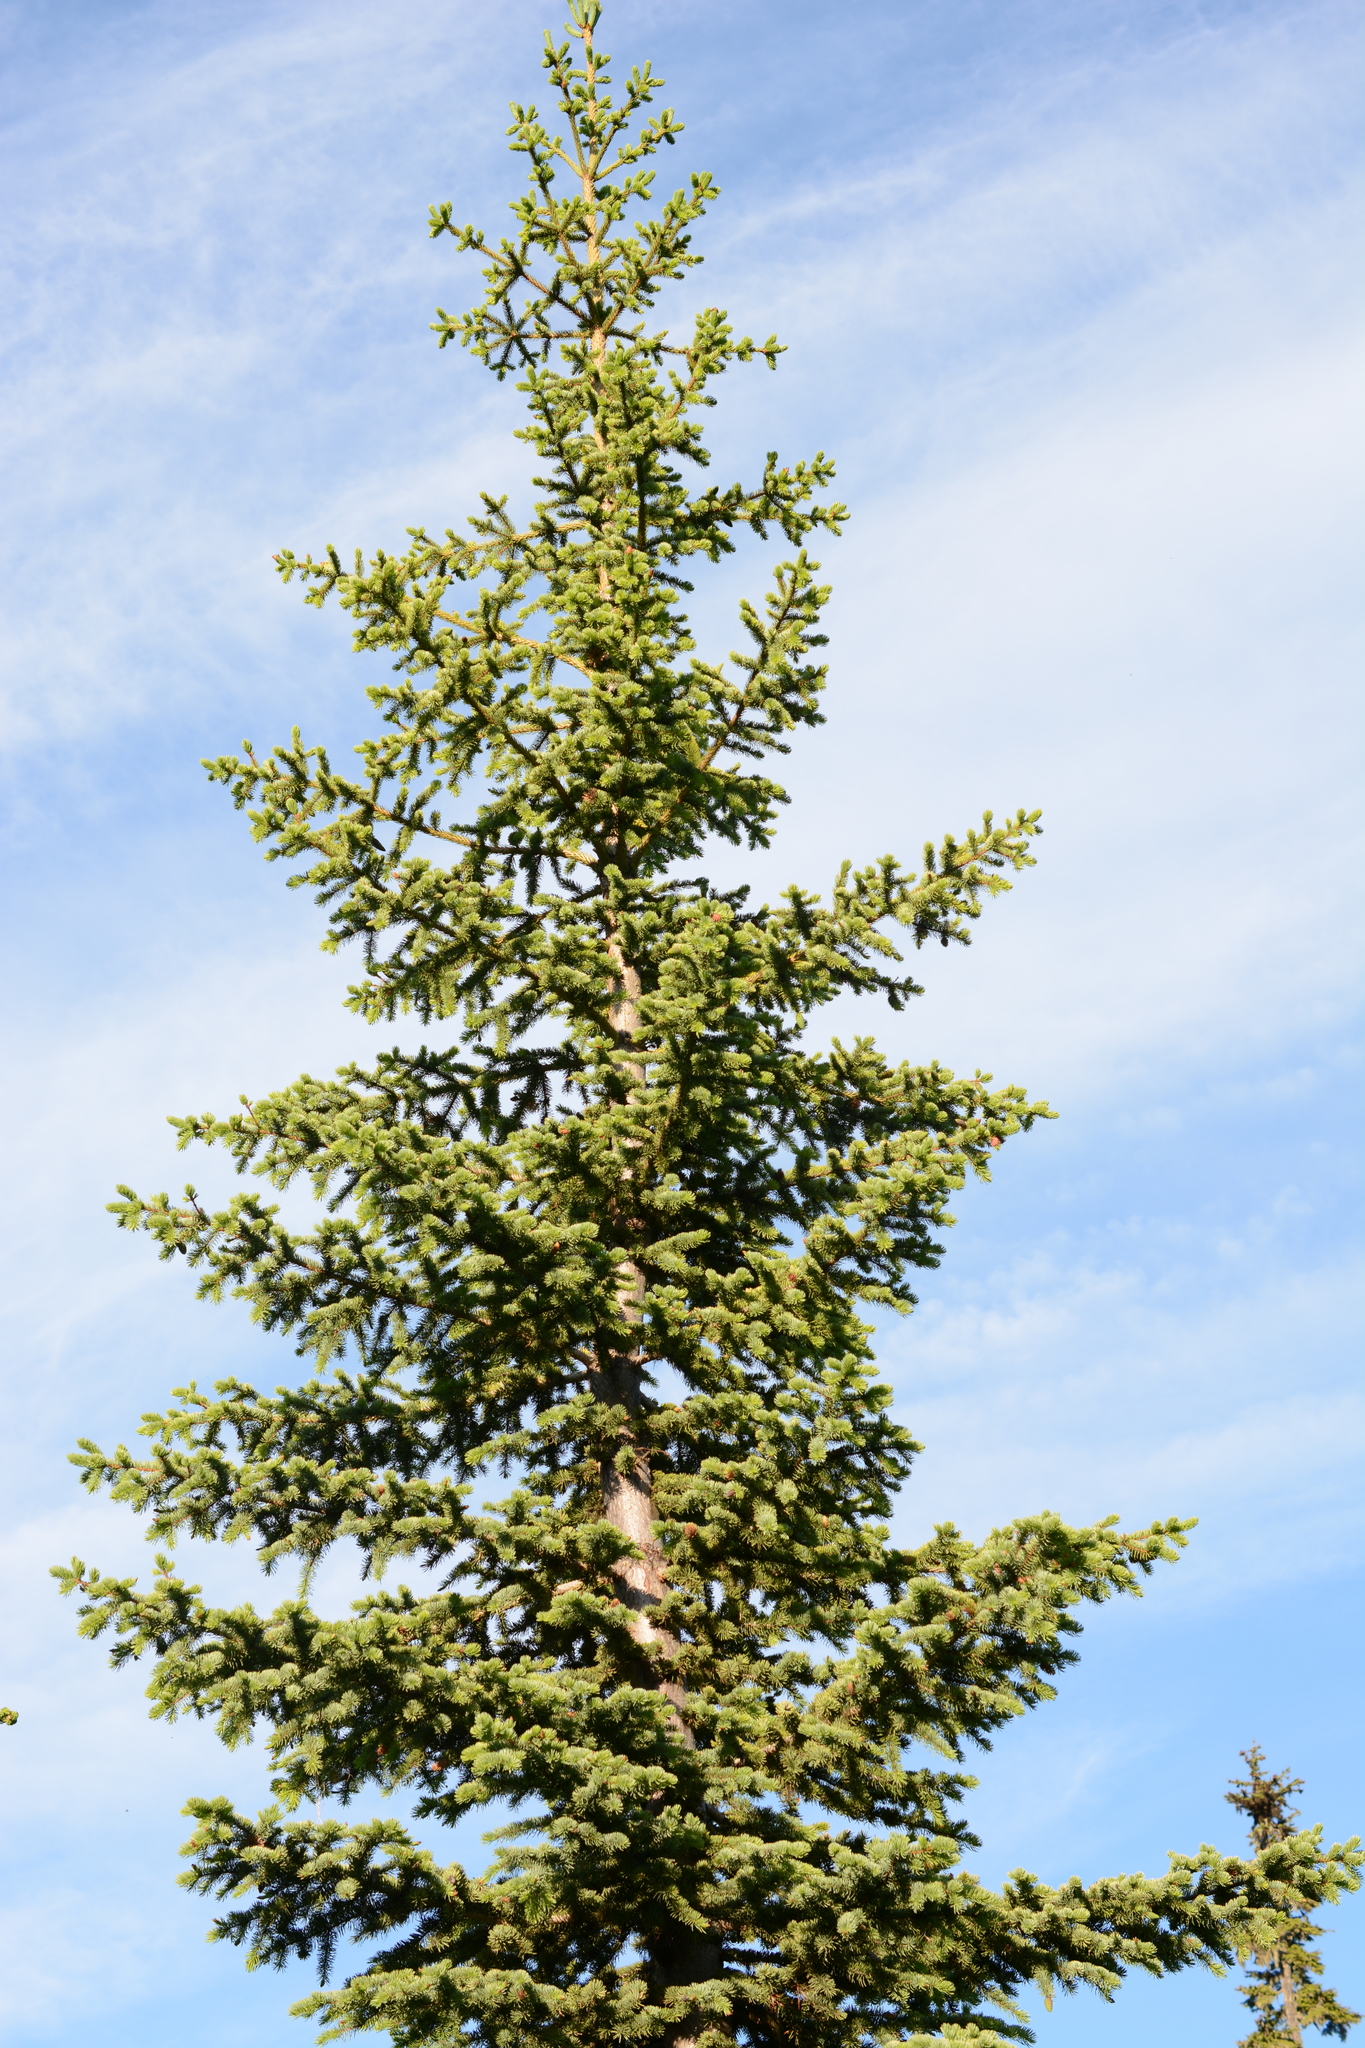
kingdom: Plantae
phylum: Tracheophyta
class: Pinopsida
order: Pinales
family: Pinaceae
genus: Picea
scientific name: Picea sitchensis
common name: Sitka spruce
